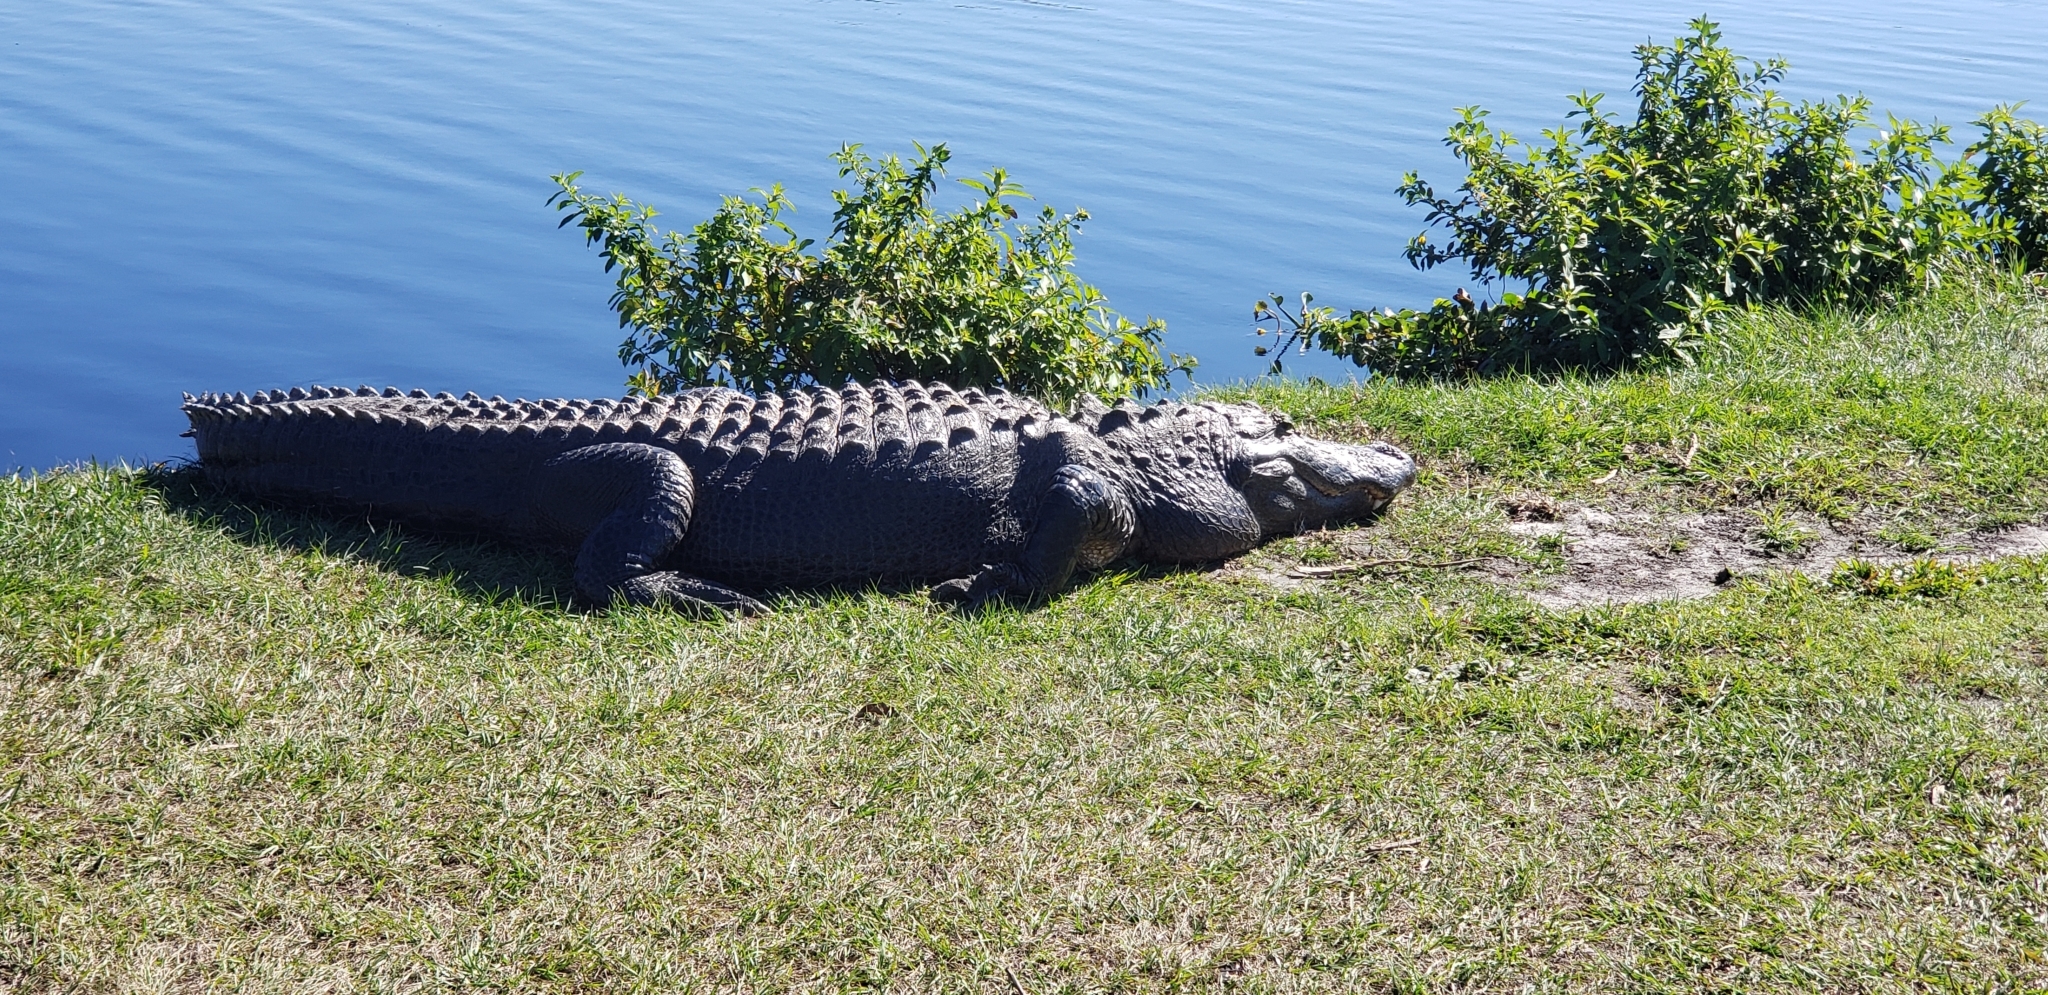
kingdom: Animalia
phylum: Chordata
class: Crocodylia
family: Alligatoridae
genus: Alligator
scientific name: Alligator mississippiensis
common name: American alligator
